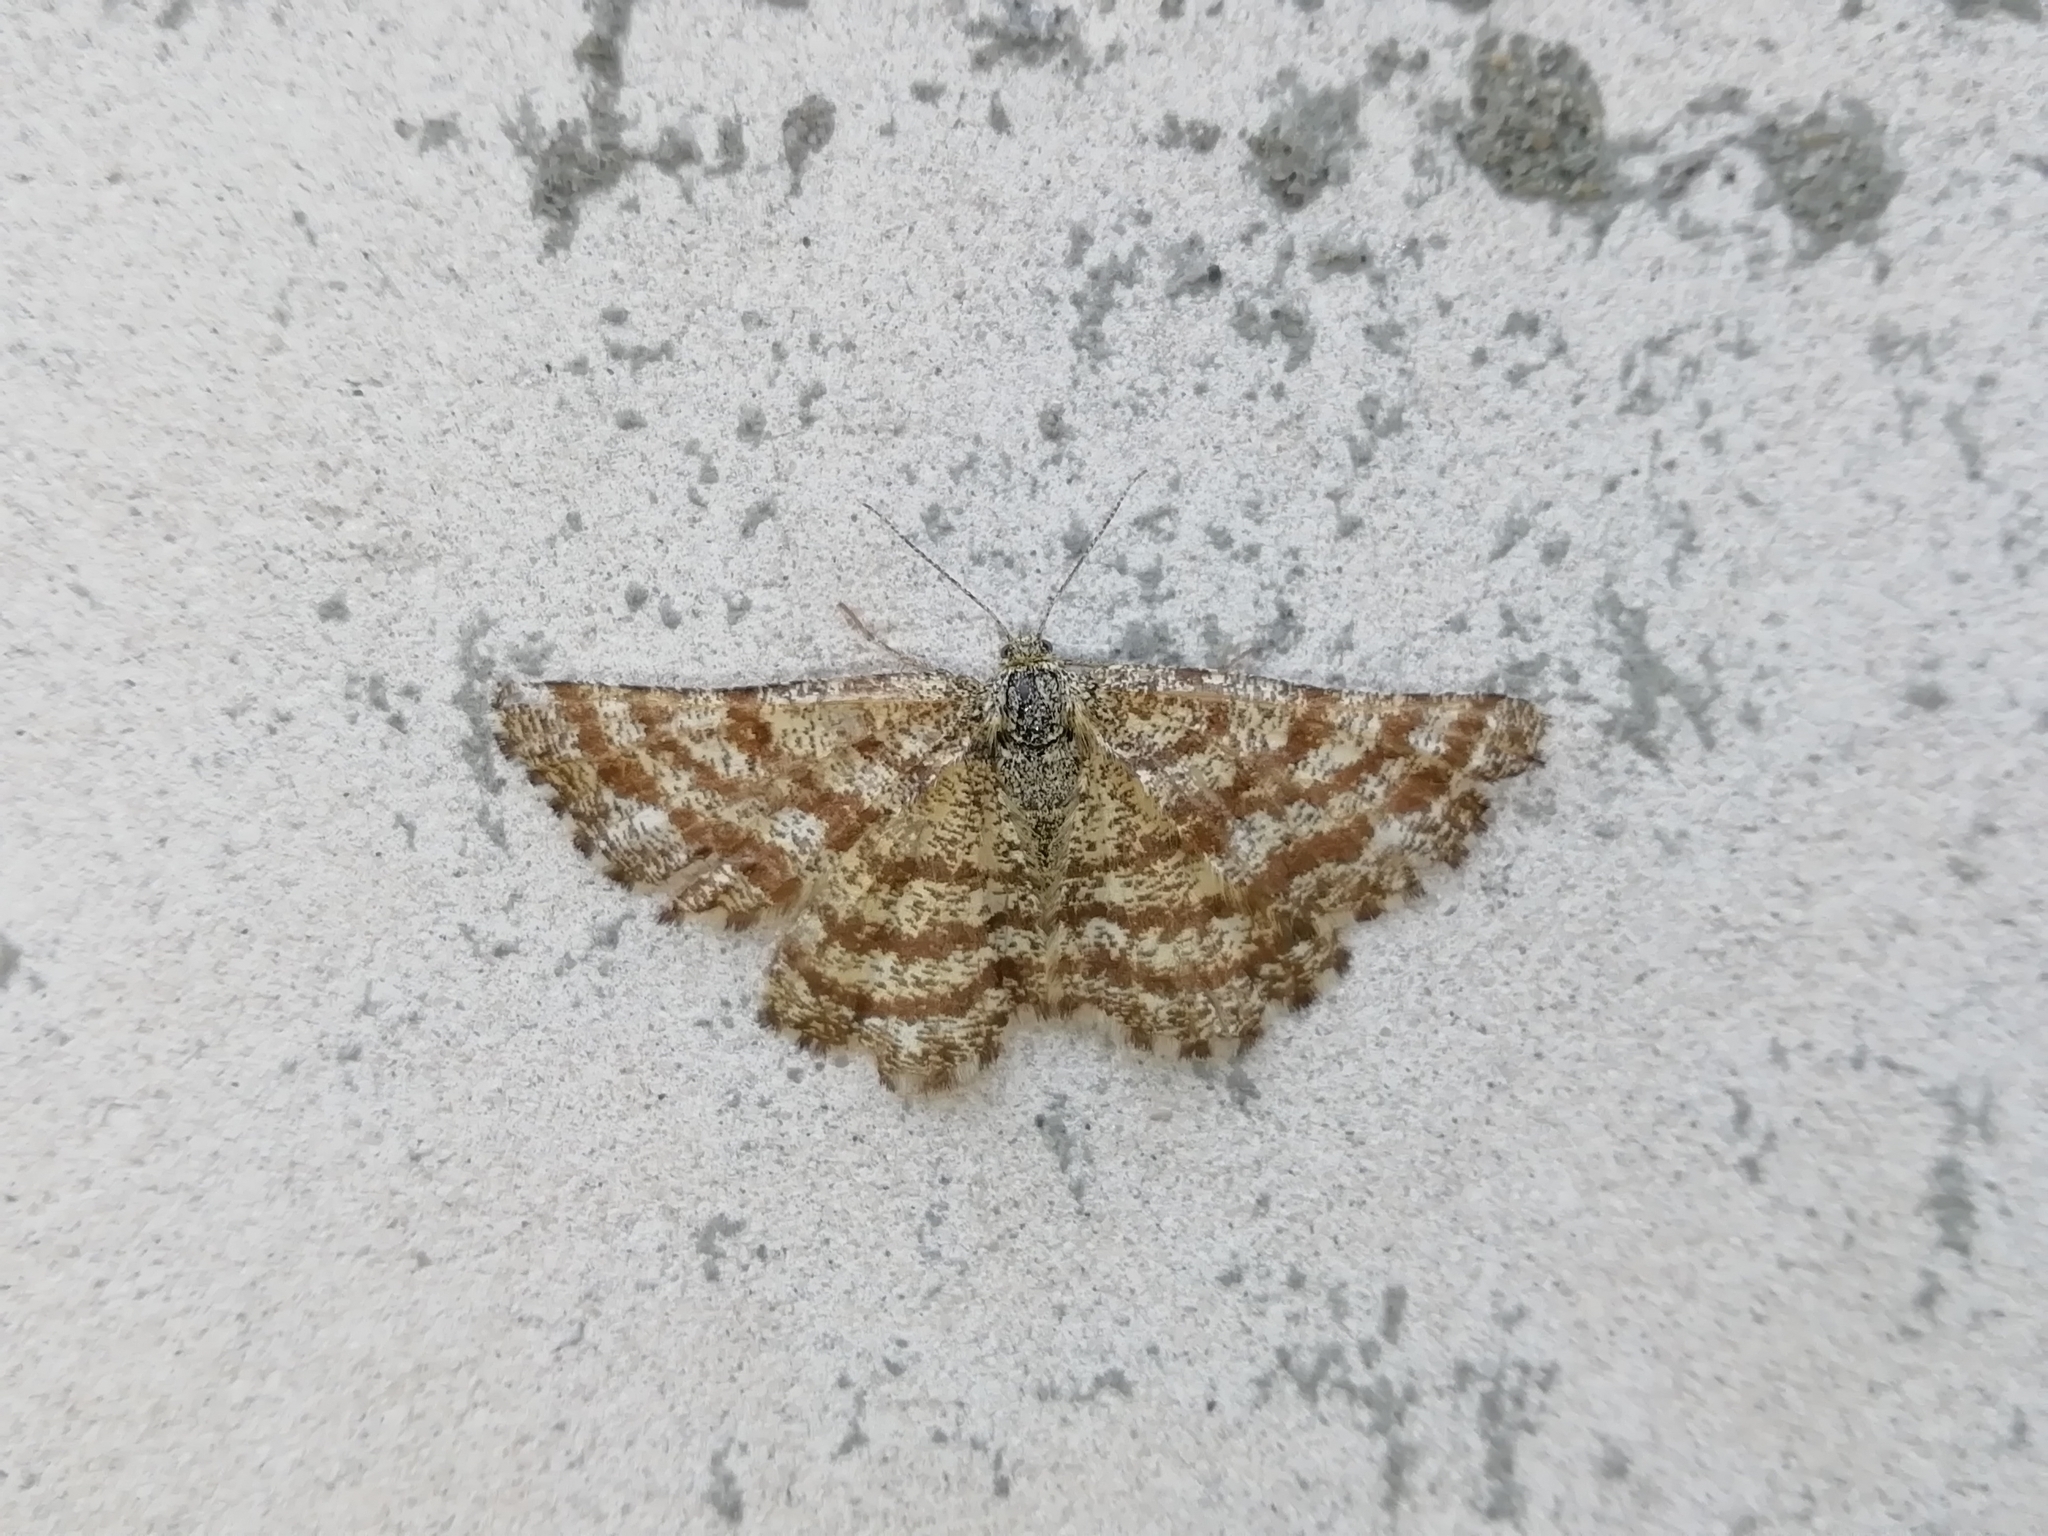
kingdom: Animalia
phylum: Arthropoda
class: Insecta
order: Lepidoptera
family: Geometridae
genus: Ematurga
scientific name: Ematurga atomaria
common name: Common heath
